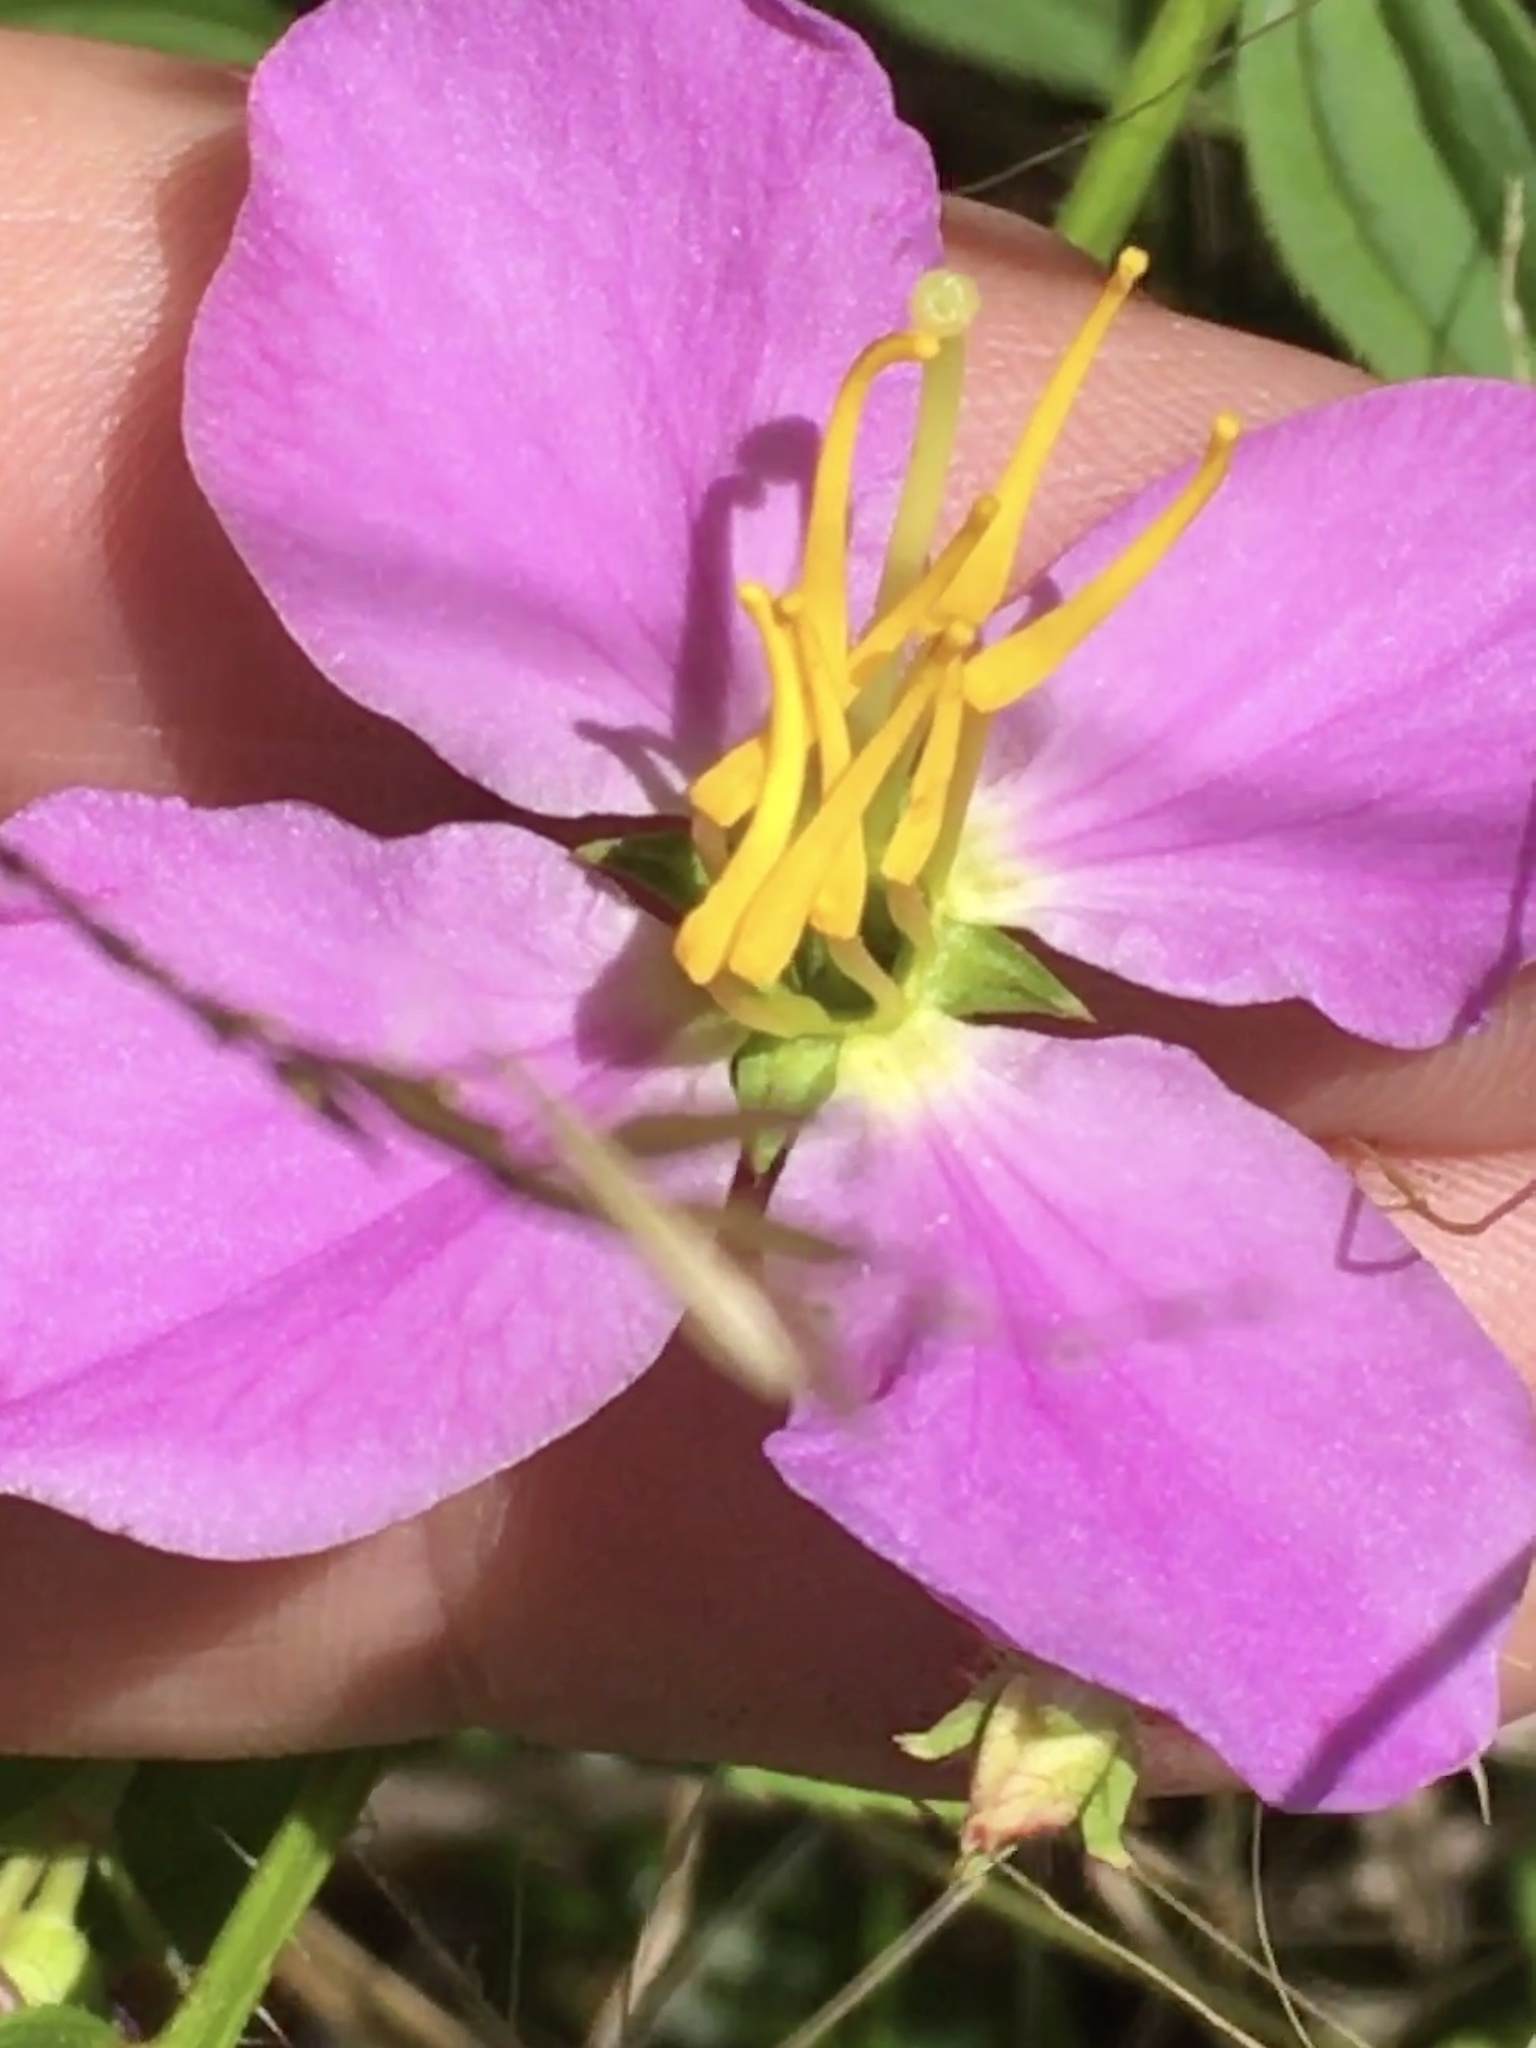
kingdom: Plantae
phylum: Tracheophyta
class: Magnoliopsida
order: Myrtales
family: Melastomataceae
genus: Rhexia
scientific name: Rhexia mariana
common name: Dull meadow-pitcher
